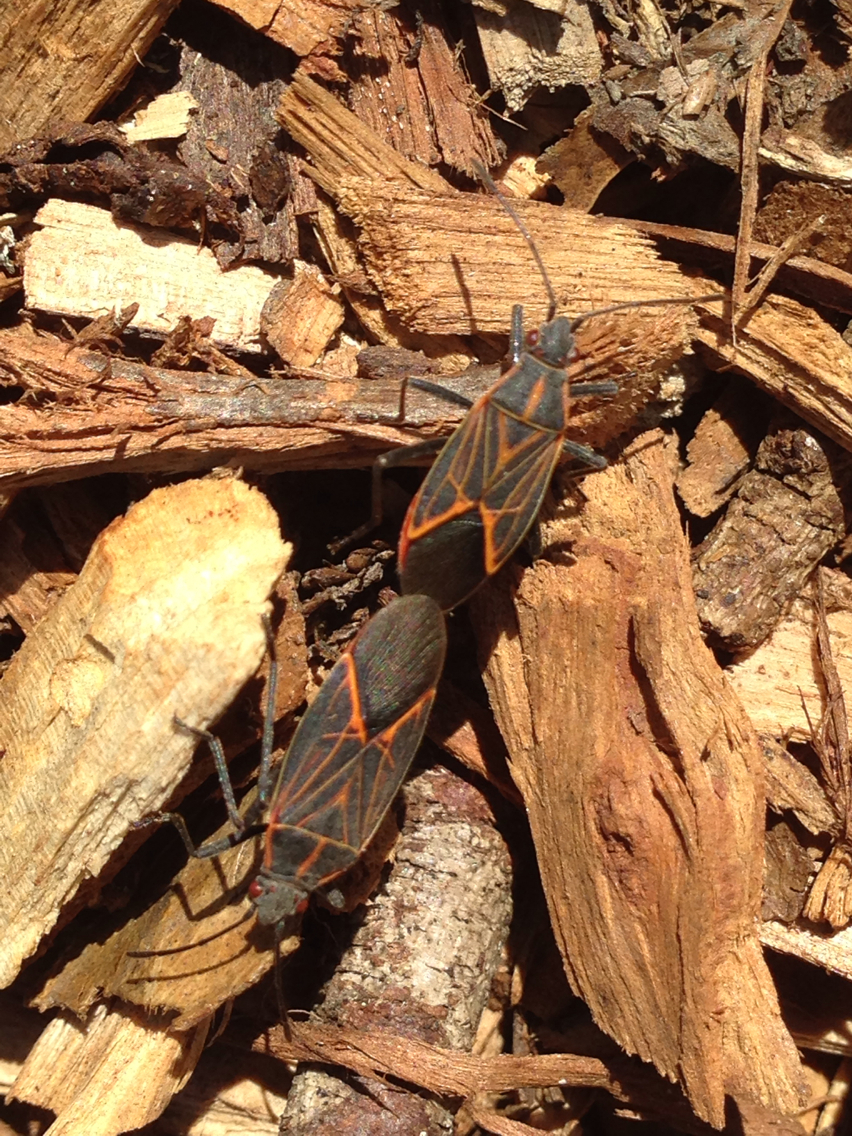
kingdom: Animalia
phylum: Arthropoda
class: Insecta
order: Hemiptera
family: Rhopalidae
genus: Boisea
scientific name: Boisea rubrolineata
